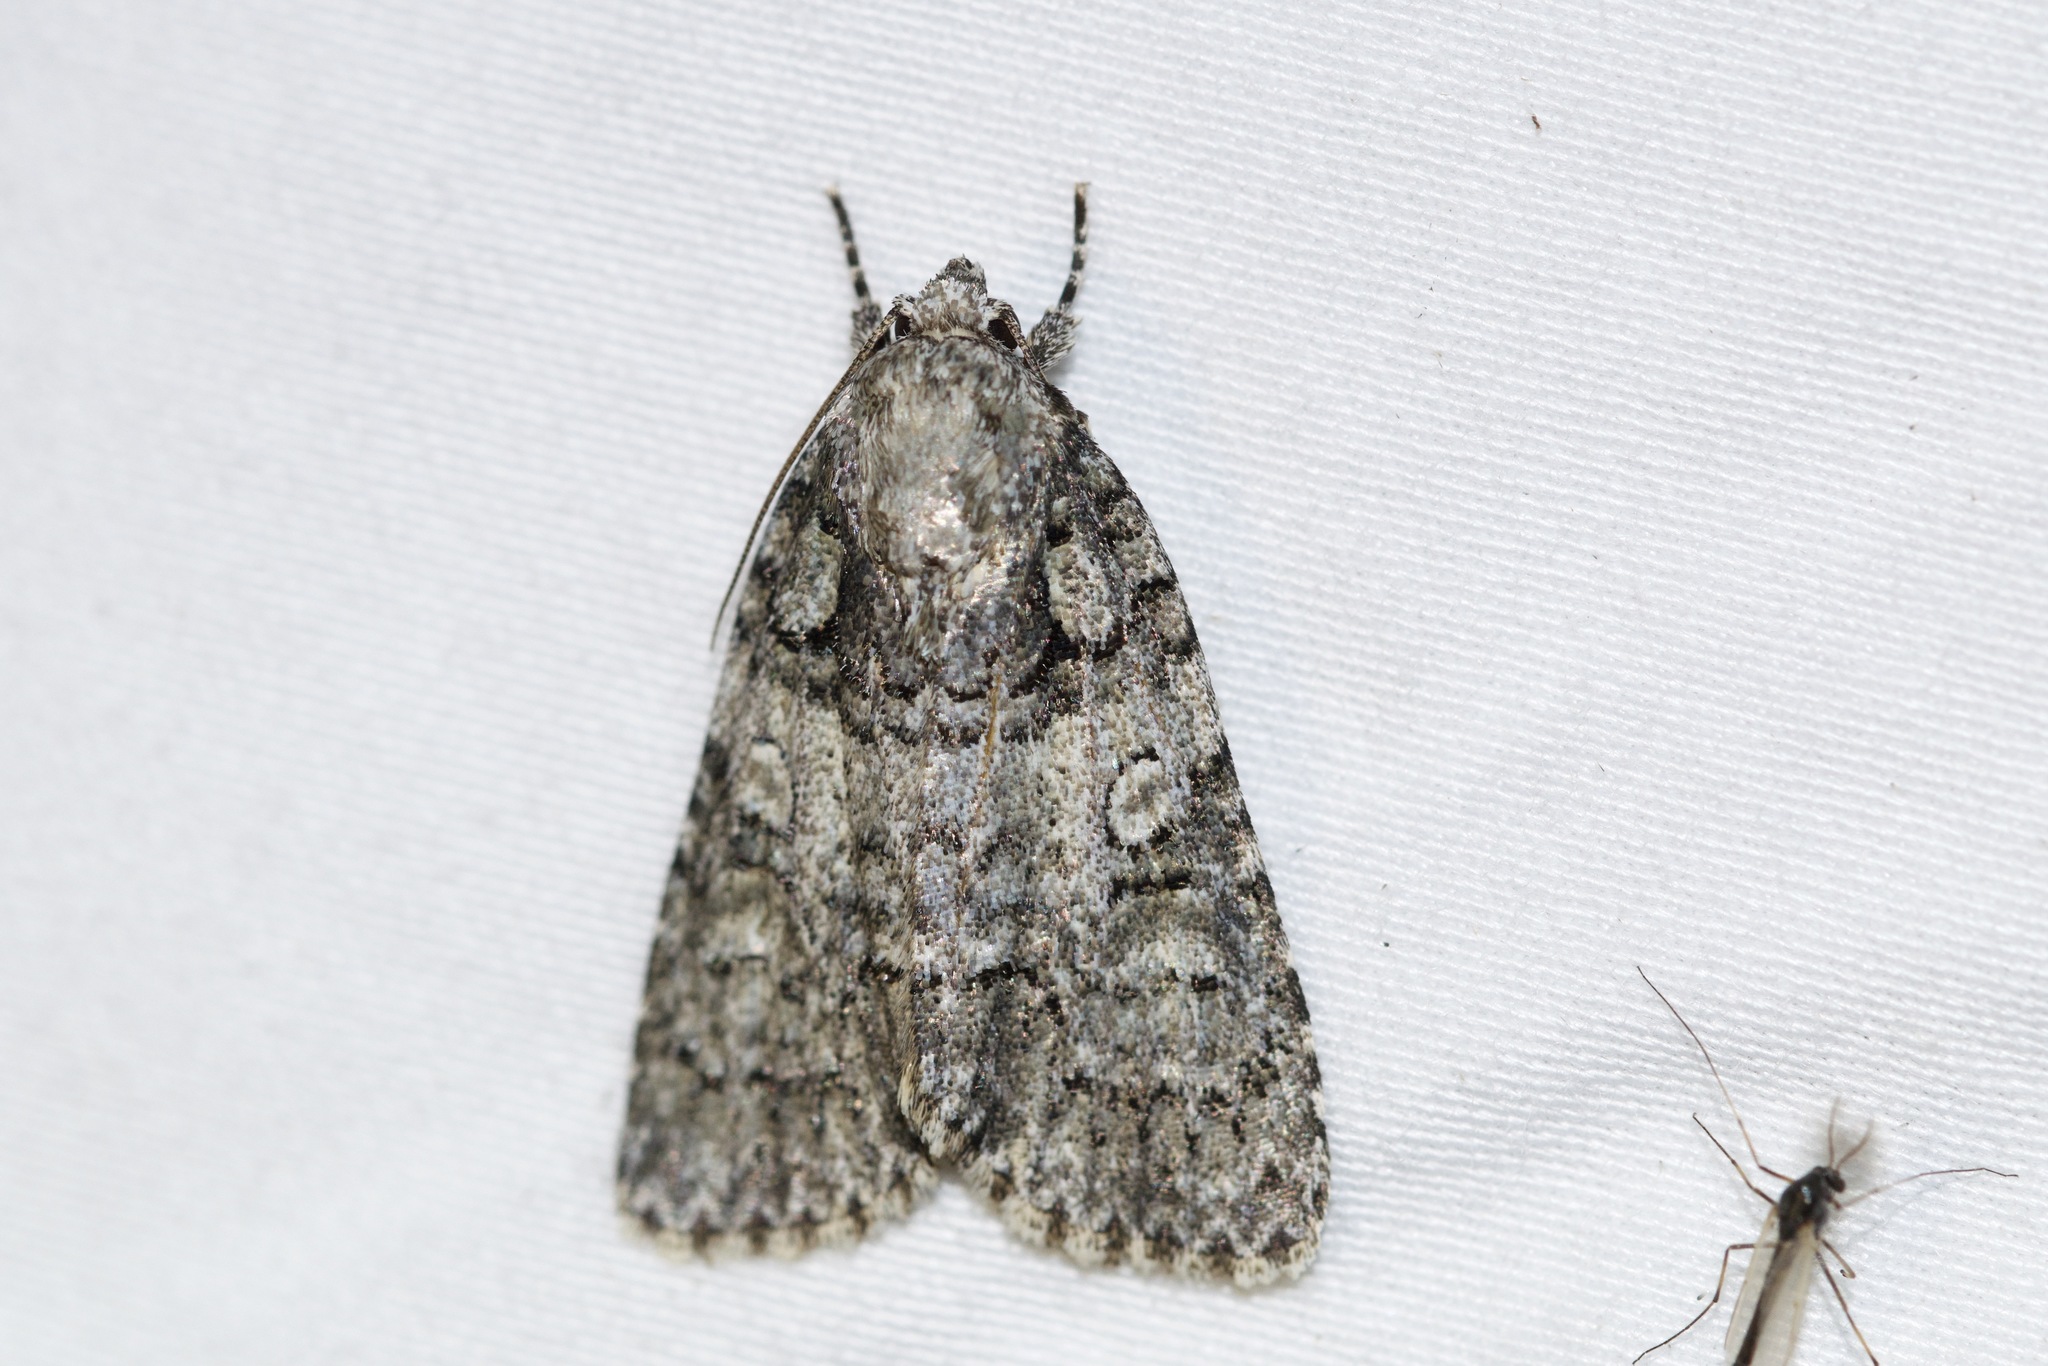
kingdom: Animalia
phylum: Arthropoda
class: Insecta
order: Lepidoptera
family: Noctuidae
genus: Acronicta
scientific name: Acronicta increta
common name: Eclipsed oak dagger
